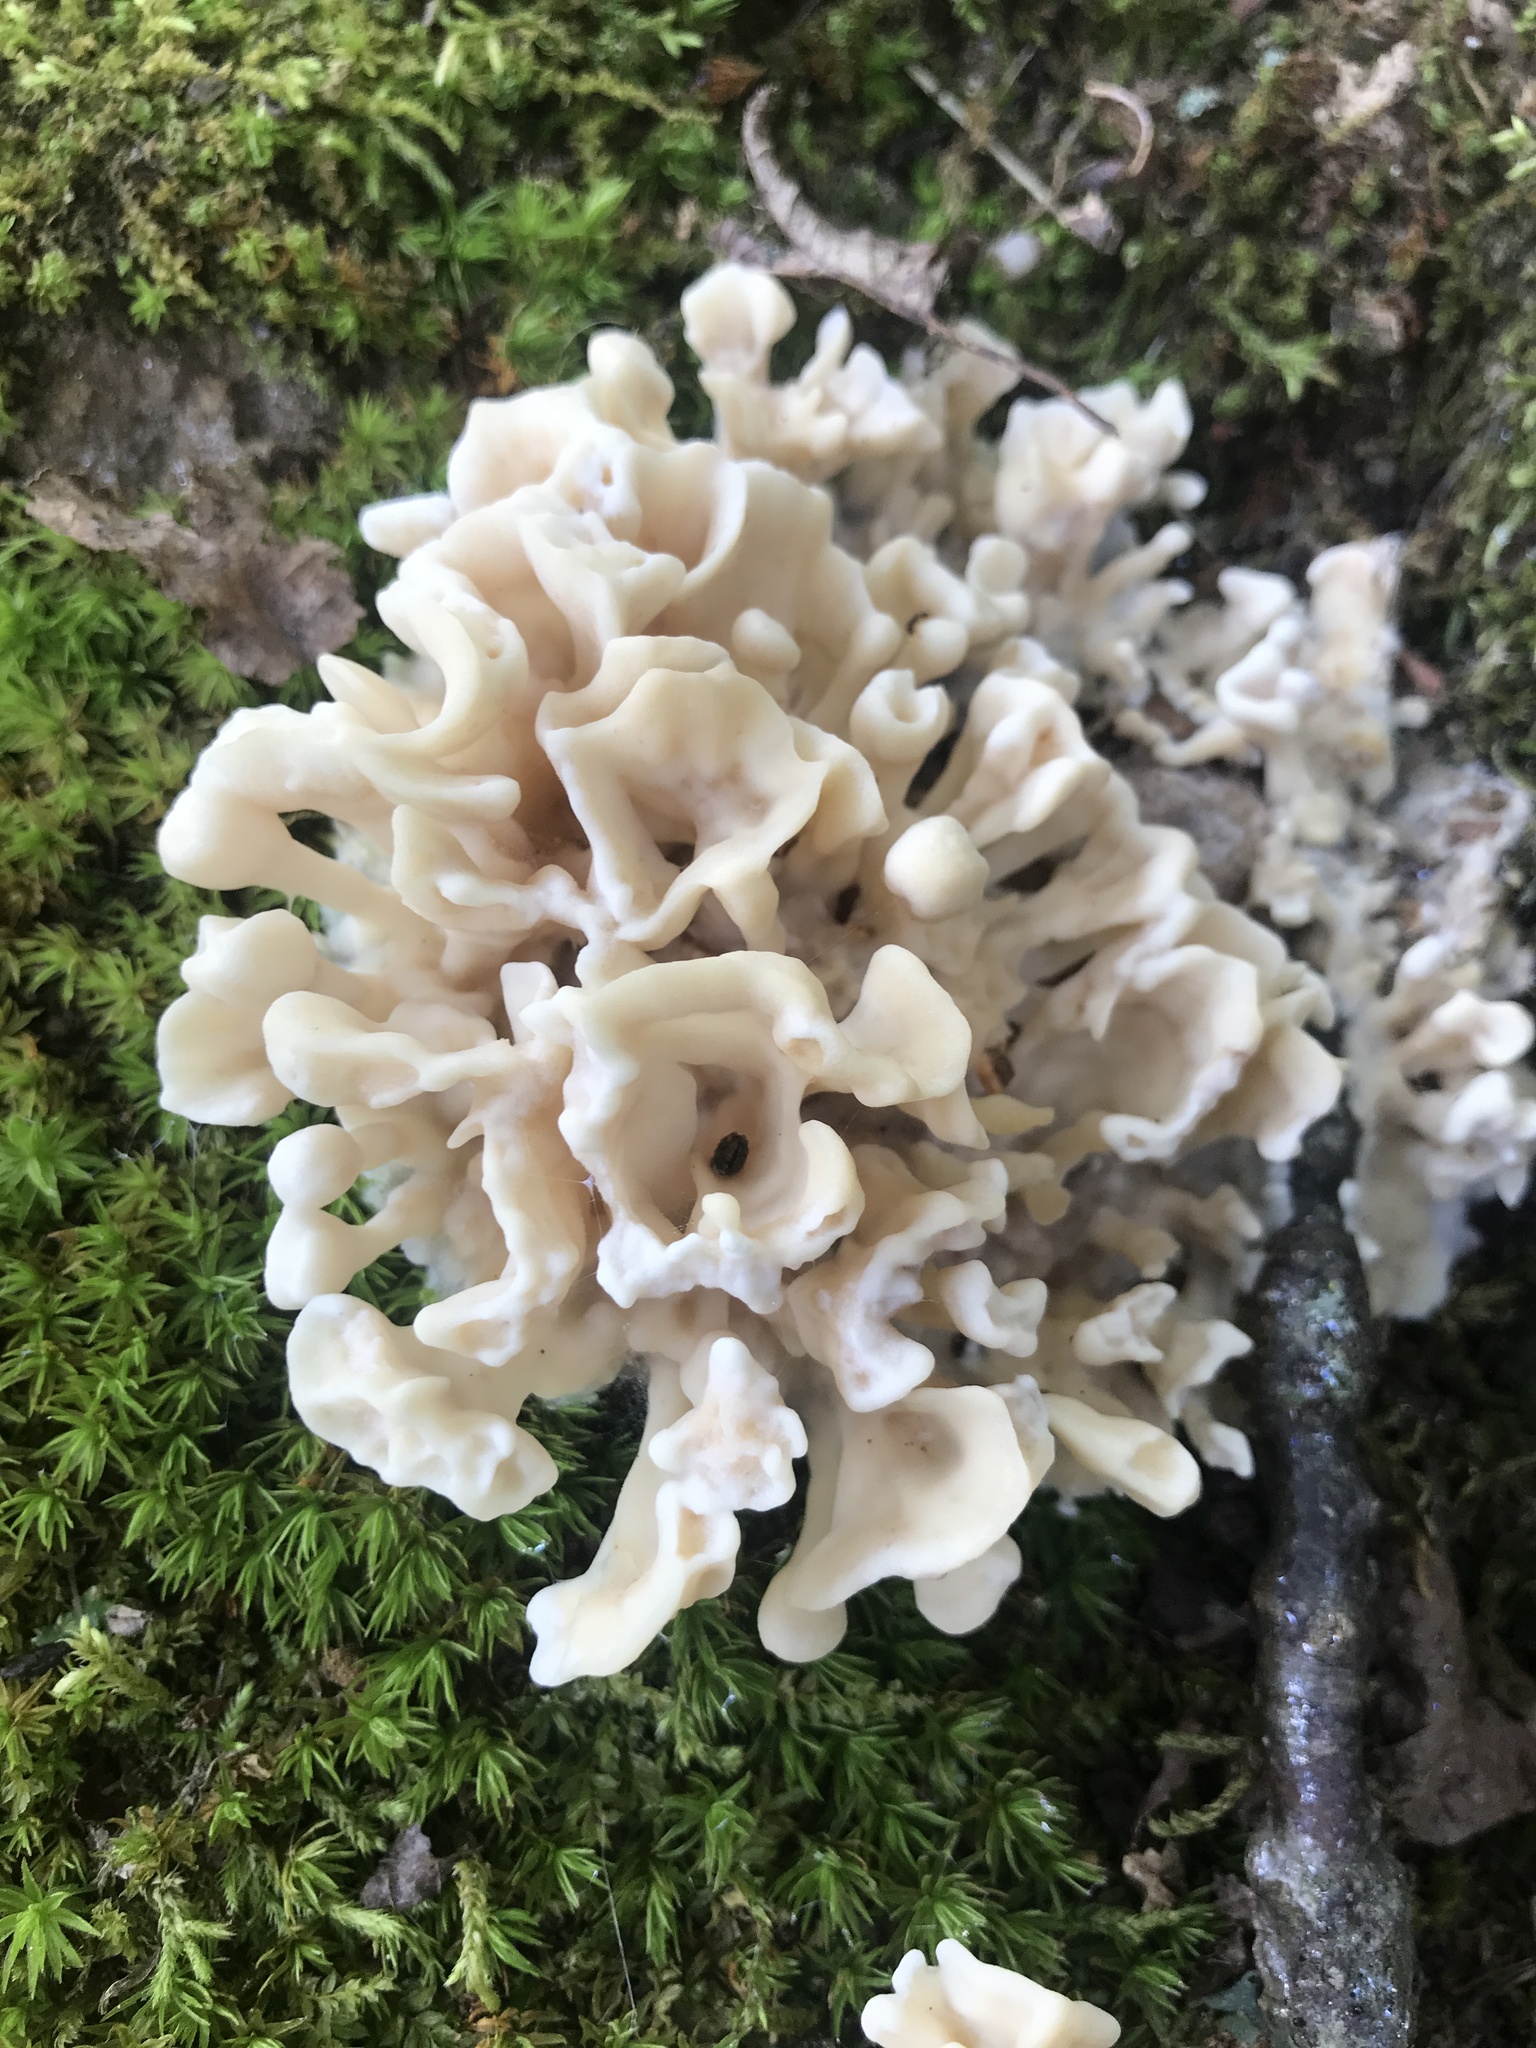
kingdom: Fungi
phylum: Basidiomycota
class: Agaricomycetes
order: Polyporales
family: Sparassidaceae
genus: Sparassis
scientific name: Sparassis spathulata
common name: Eastern cauliflower mushroom
